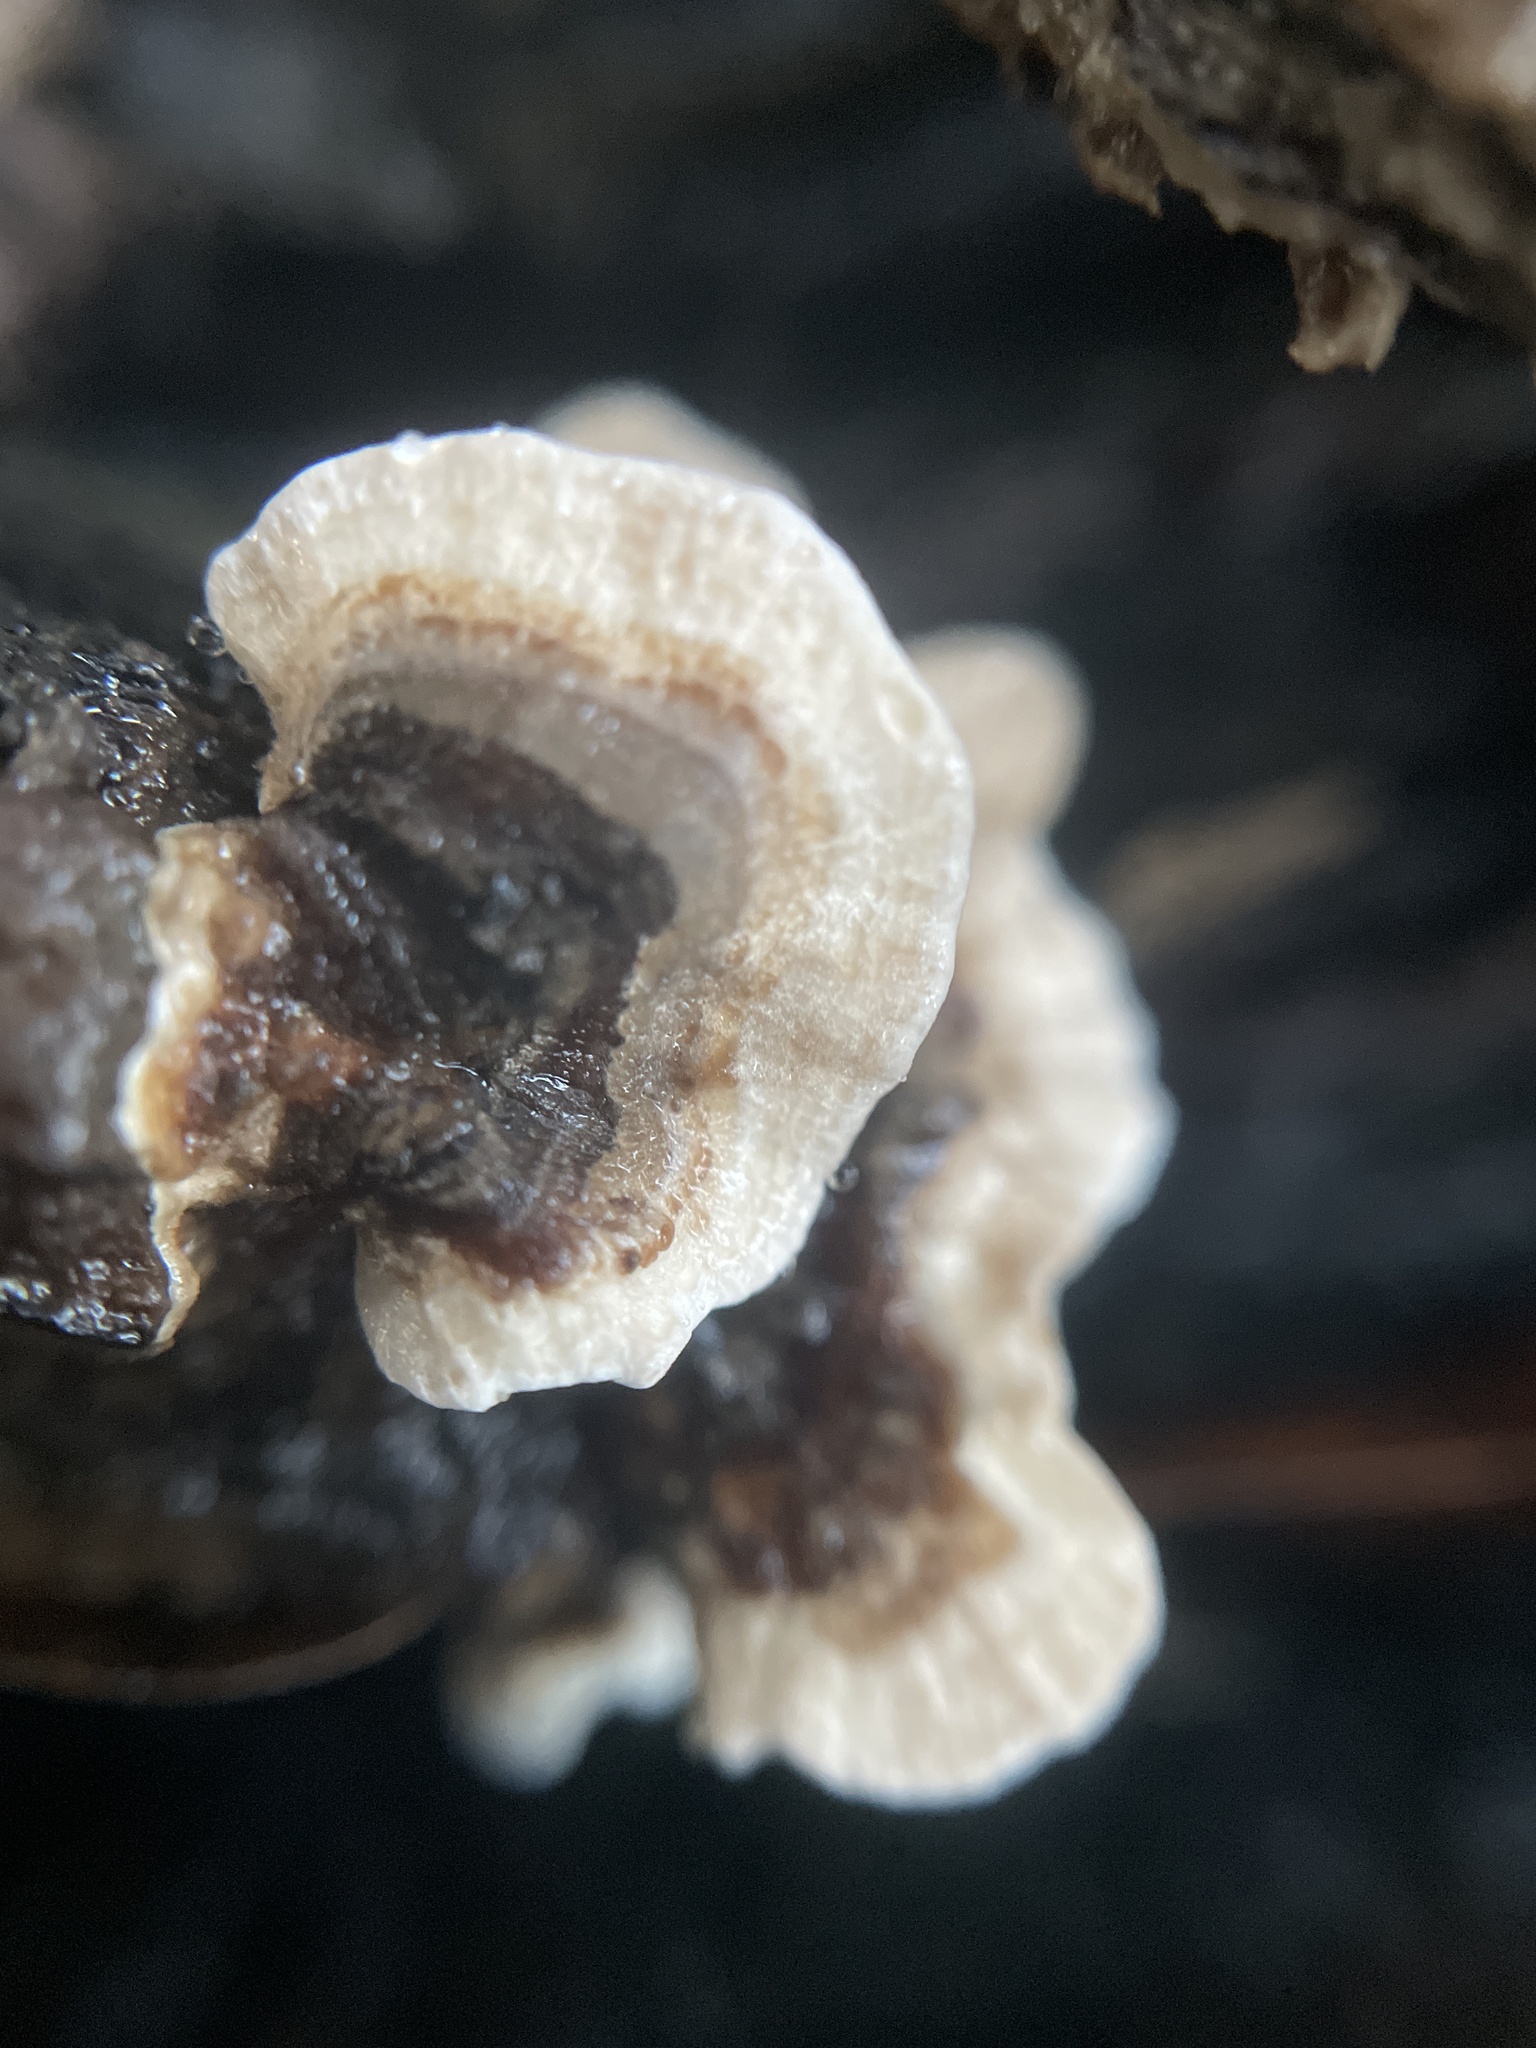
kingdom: Fungi
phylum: Basidiomycota
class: Agaricomycetes
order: Polyporales
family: Polyporaceae
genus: Trametes
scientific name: Trametes versicolor
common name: Turkeytail
